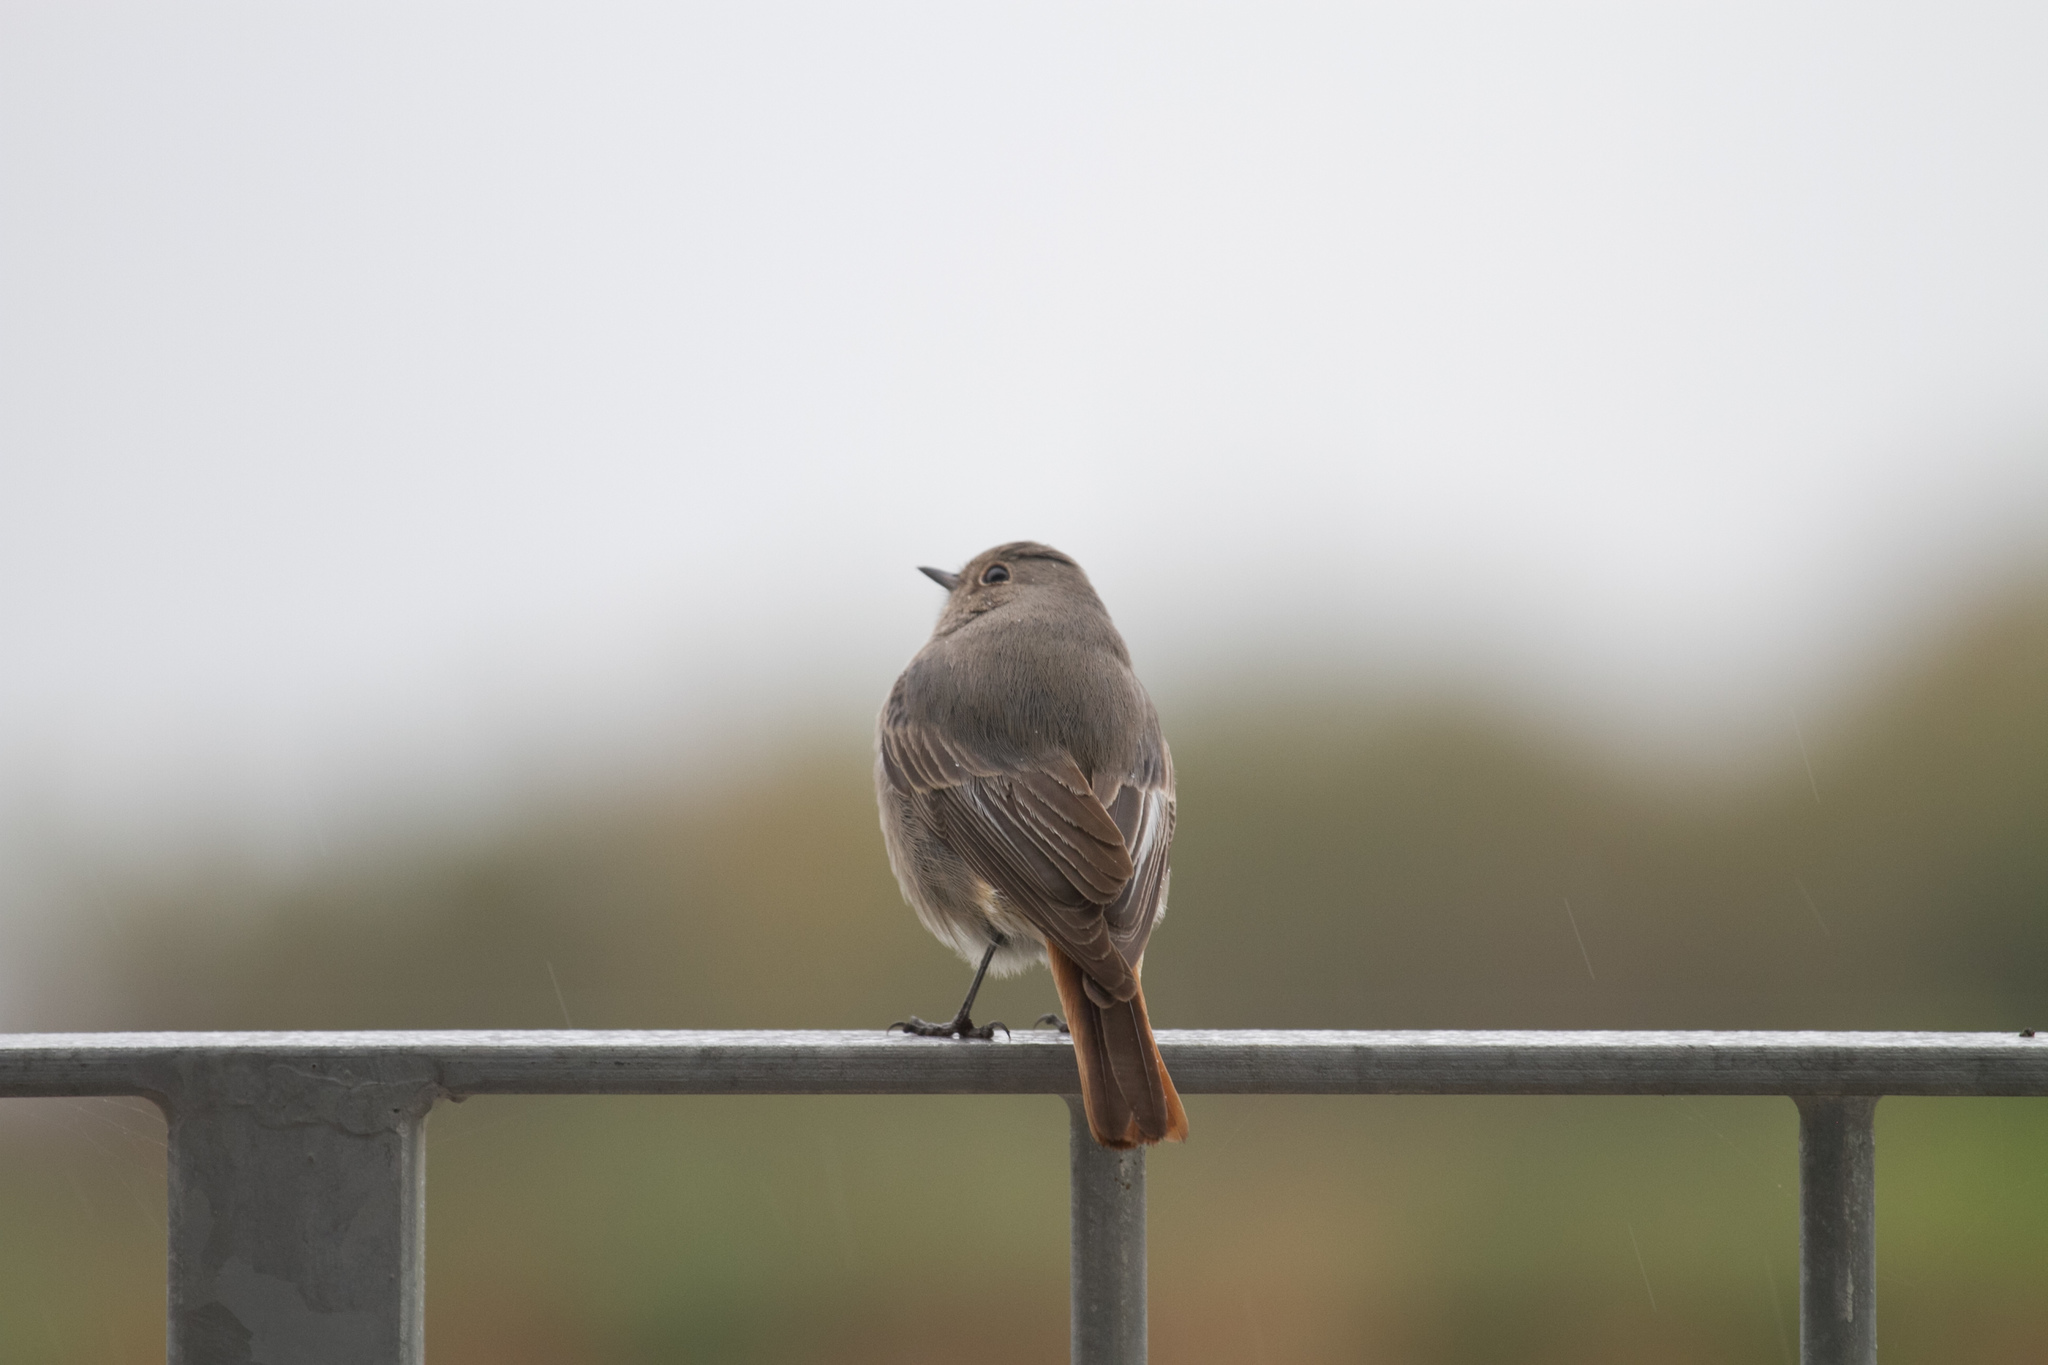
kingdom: Animalia
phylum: Chordata
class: Aves
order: Passeriformes
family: Muscicapidae
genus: Phoenicurus
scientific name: Phoenicurus ochruros
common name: Black redstart
